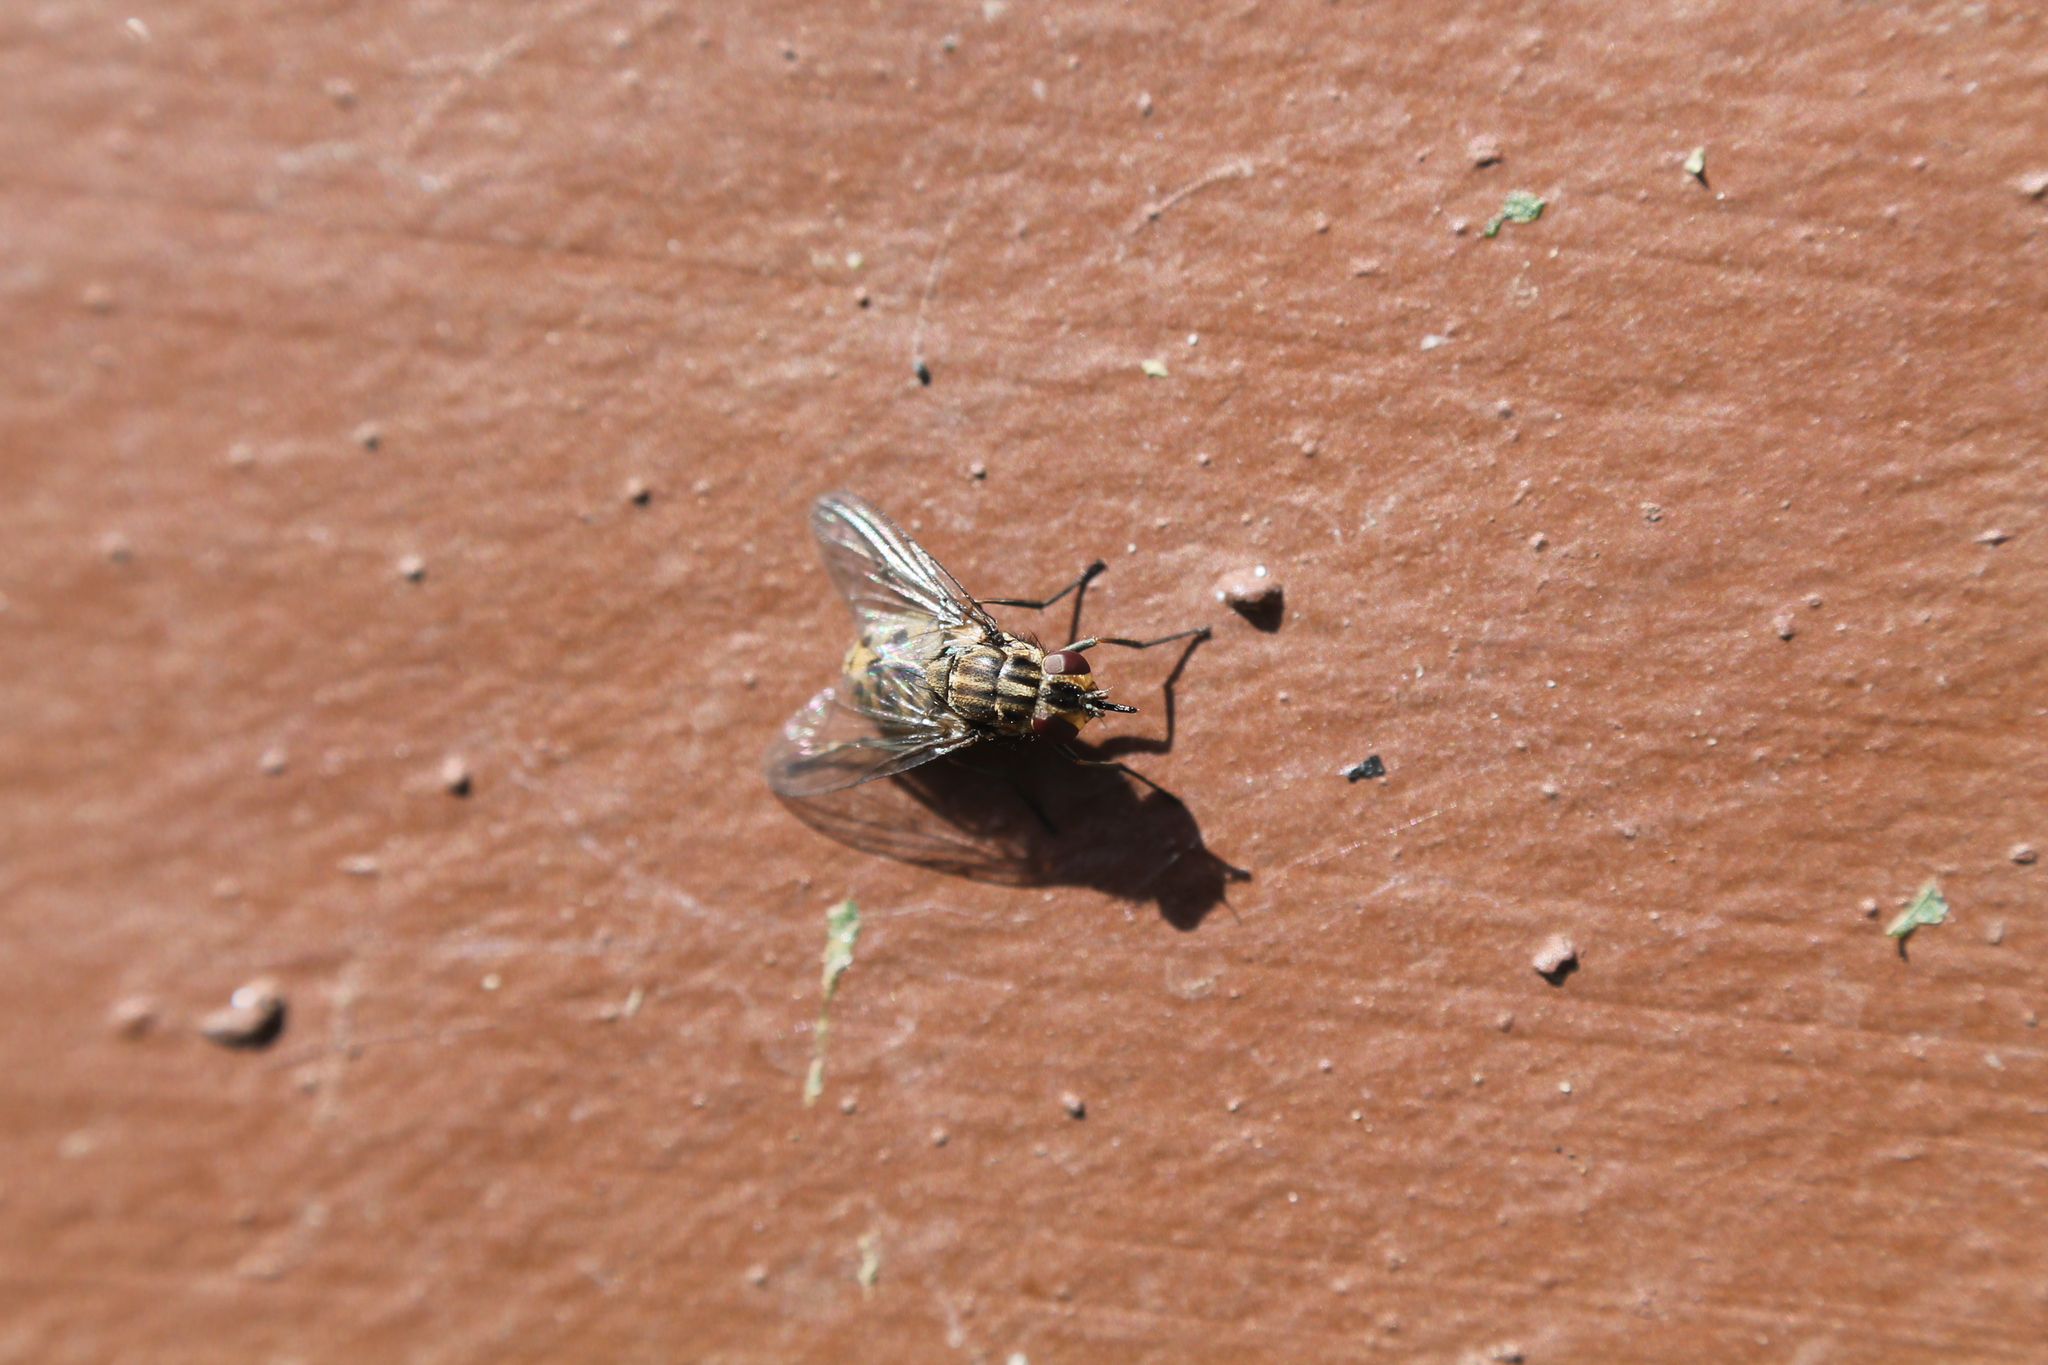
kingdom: Animalia
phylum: Arthropoda
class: Insecta
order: Diptera
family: Muscidae
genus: Stomoxys
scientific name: Stomoxys calcitrans
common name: Stable fly
